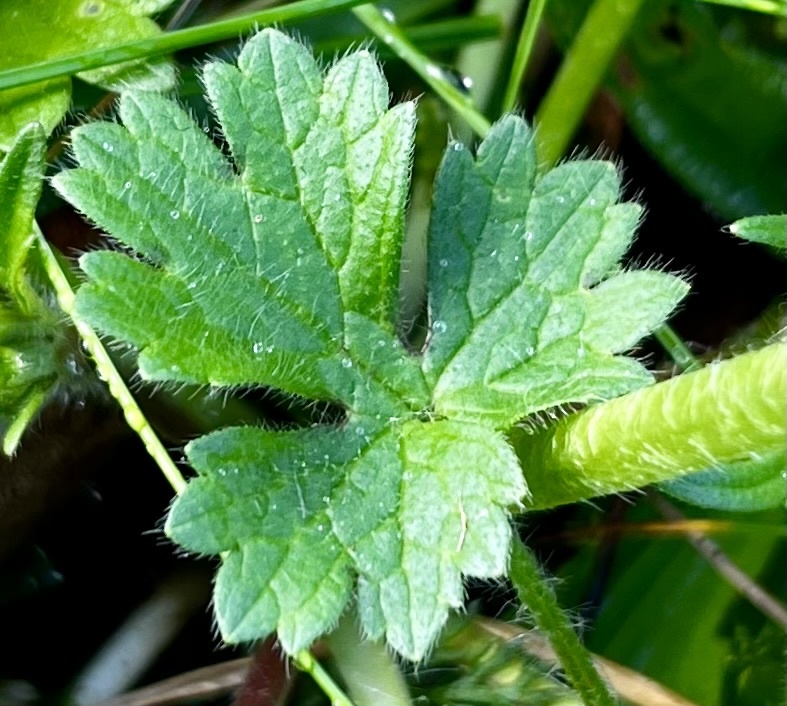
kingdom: Plantae
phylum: Tracheophyta
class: Magnoliopsida
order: Ranunculales
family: Ranunculaceae
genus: Ranunculus
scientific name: Ranunculus bulbosus
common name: Bulbous buttercup
